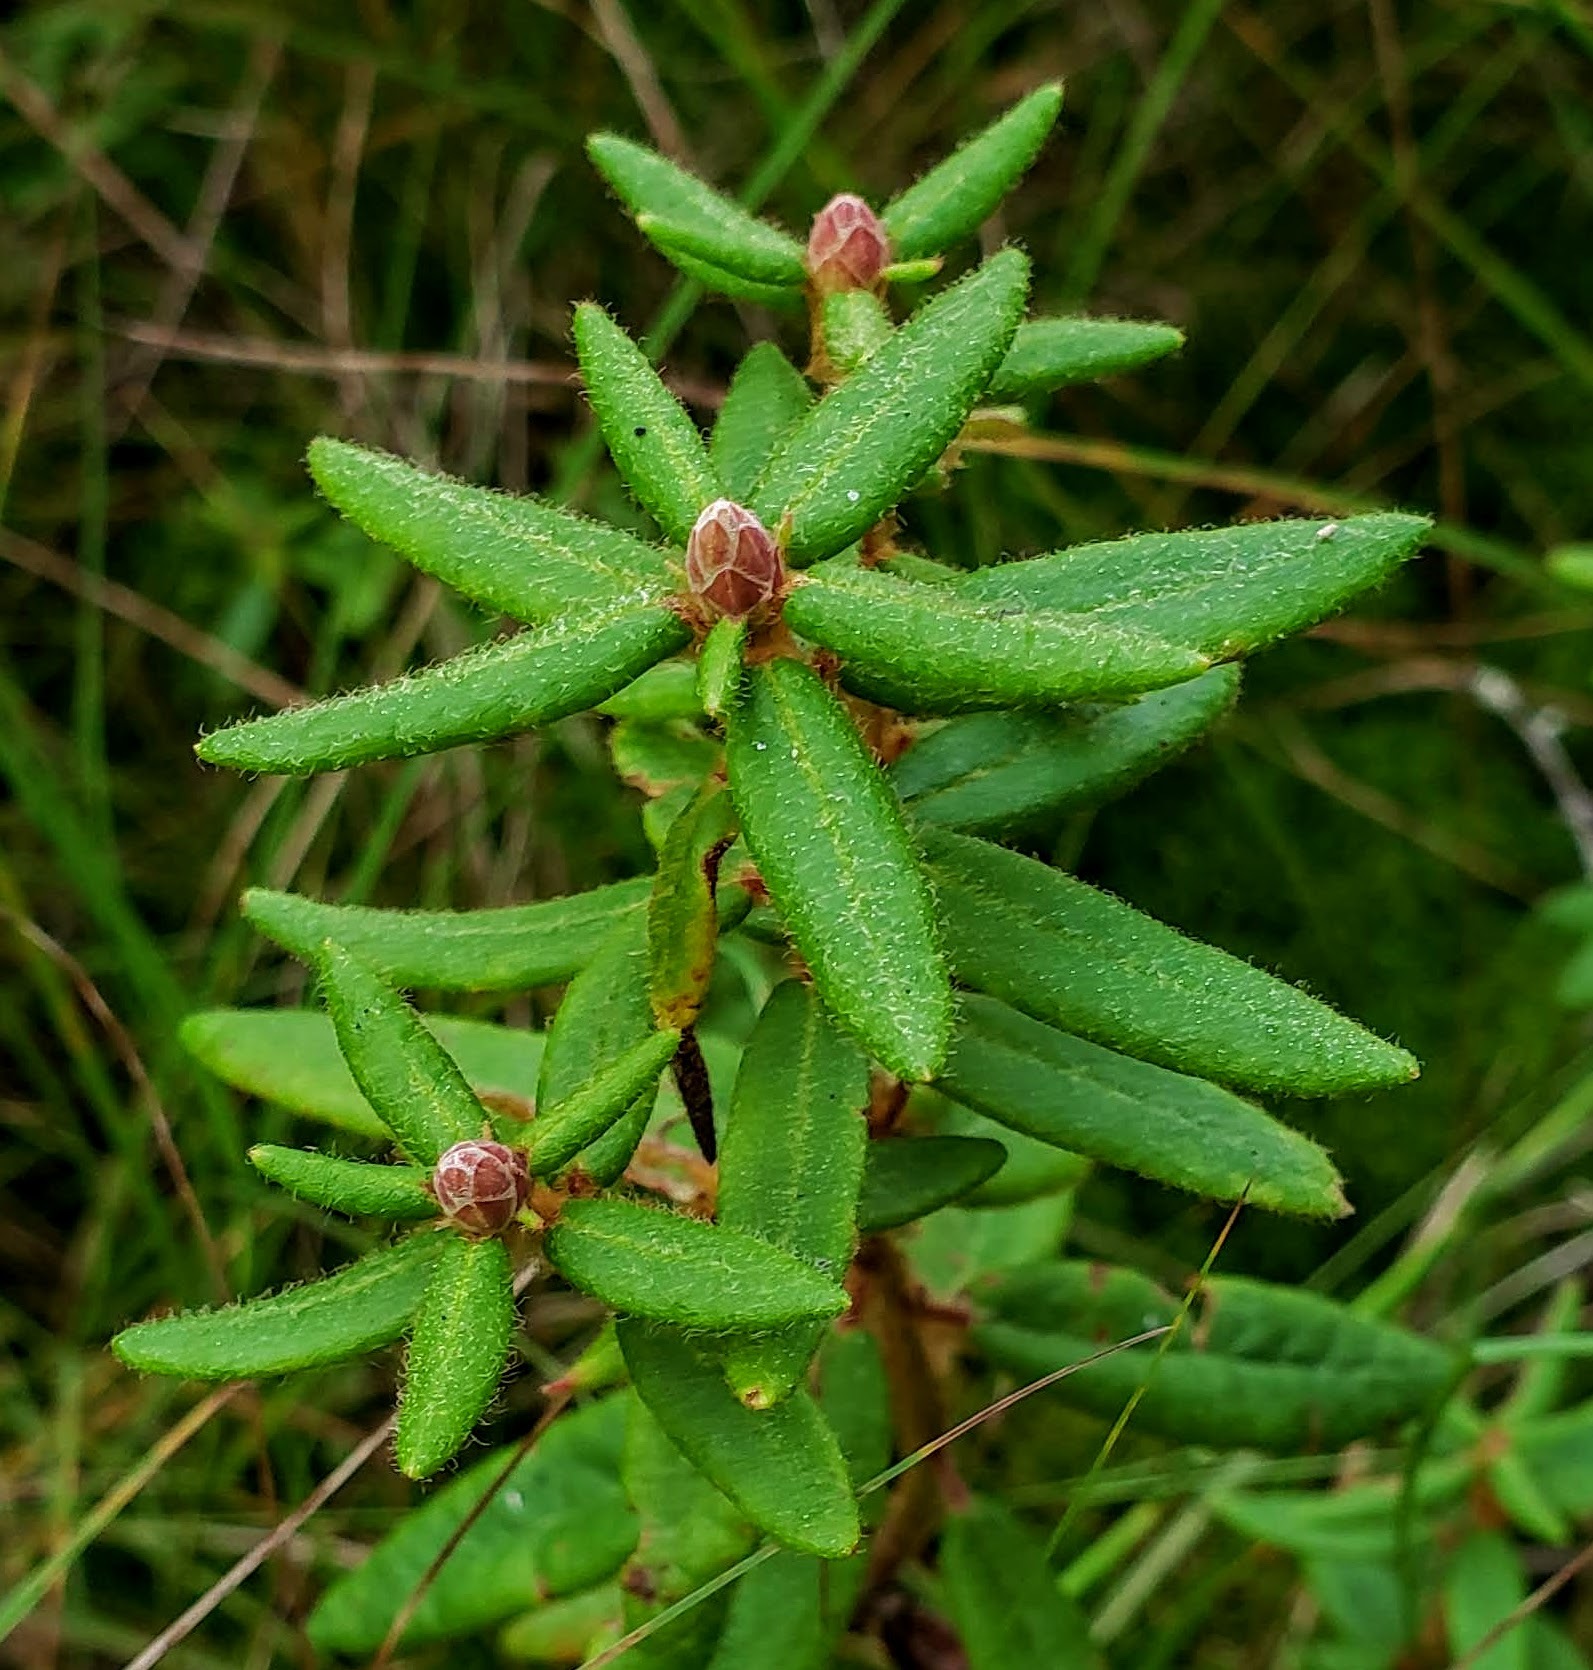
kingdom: Plantae
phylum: Tracheophyta
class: Magnoliopsida
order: Ericales
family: Ericaceae
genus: Rhododendron
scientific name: Rhododendron groenlandicum
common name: Bog labrador tea
